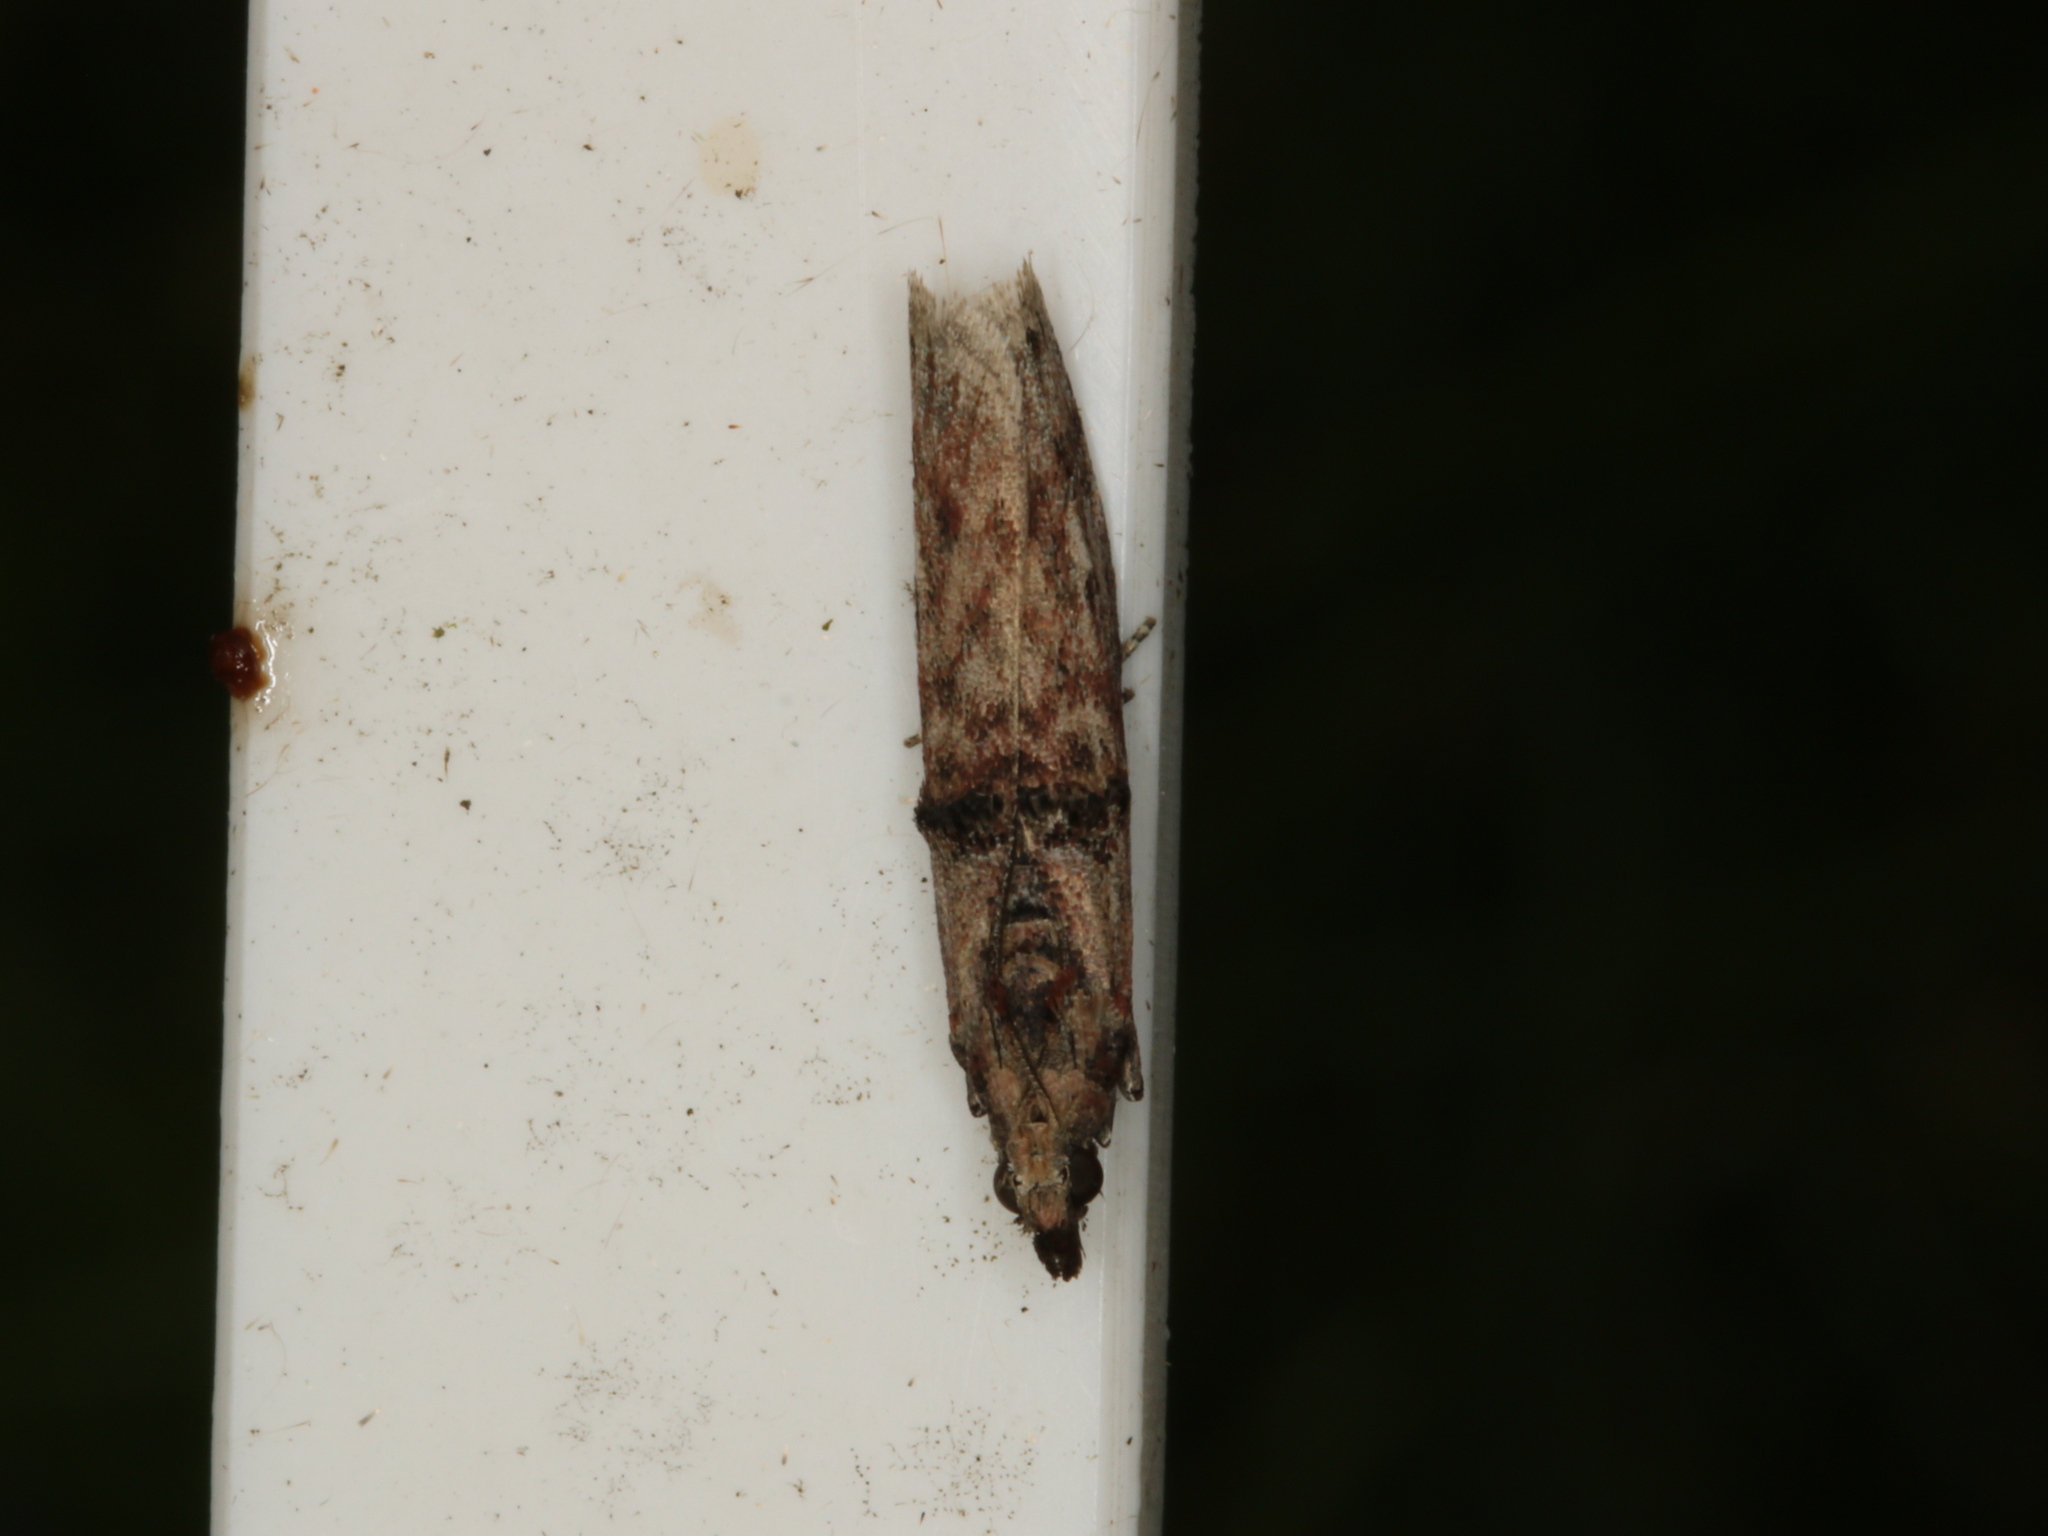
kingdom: Animalia
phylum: Arthropoda
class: Insecta
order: Lepidoptera
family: Pyralidae
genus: Nephopterix
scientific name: Nephopterix angustella
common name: Spindle knot-horn
